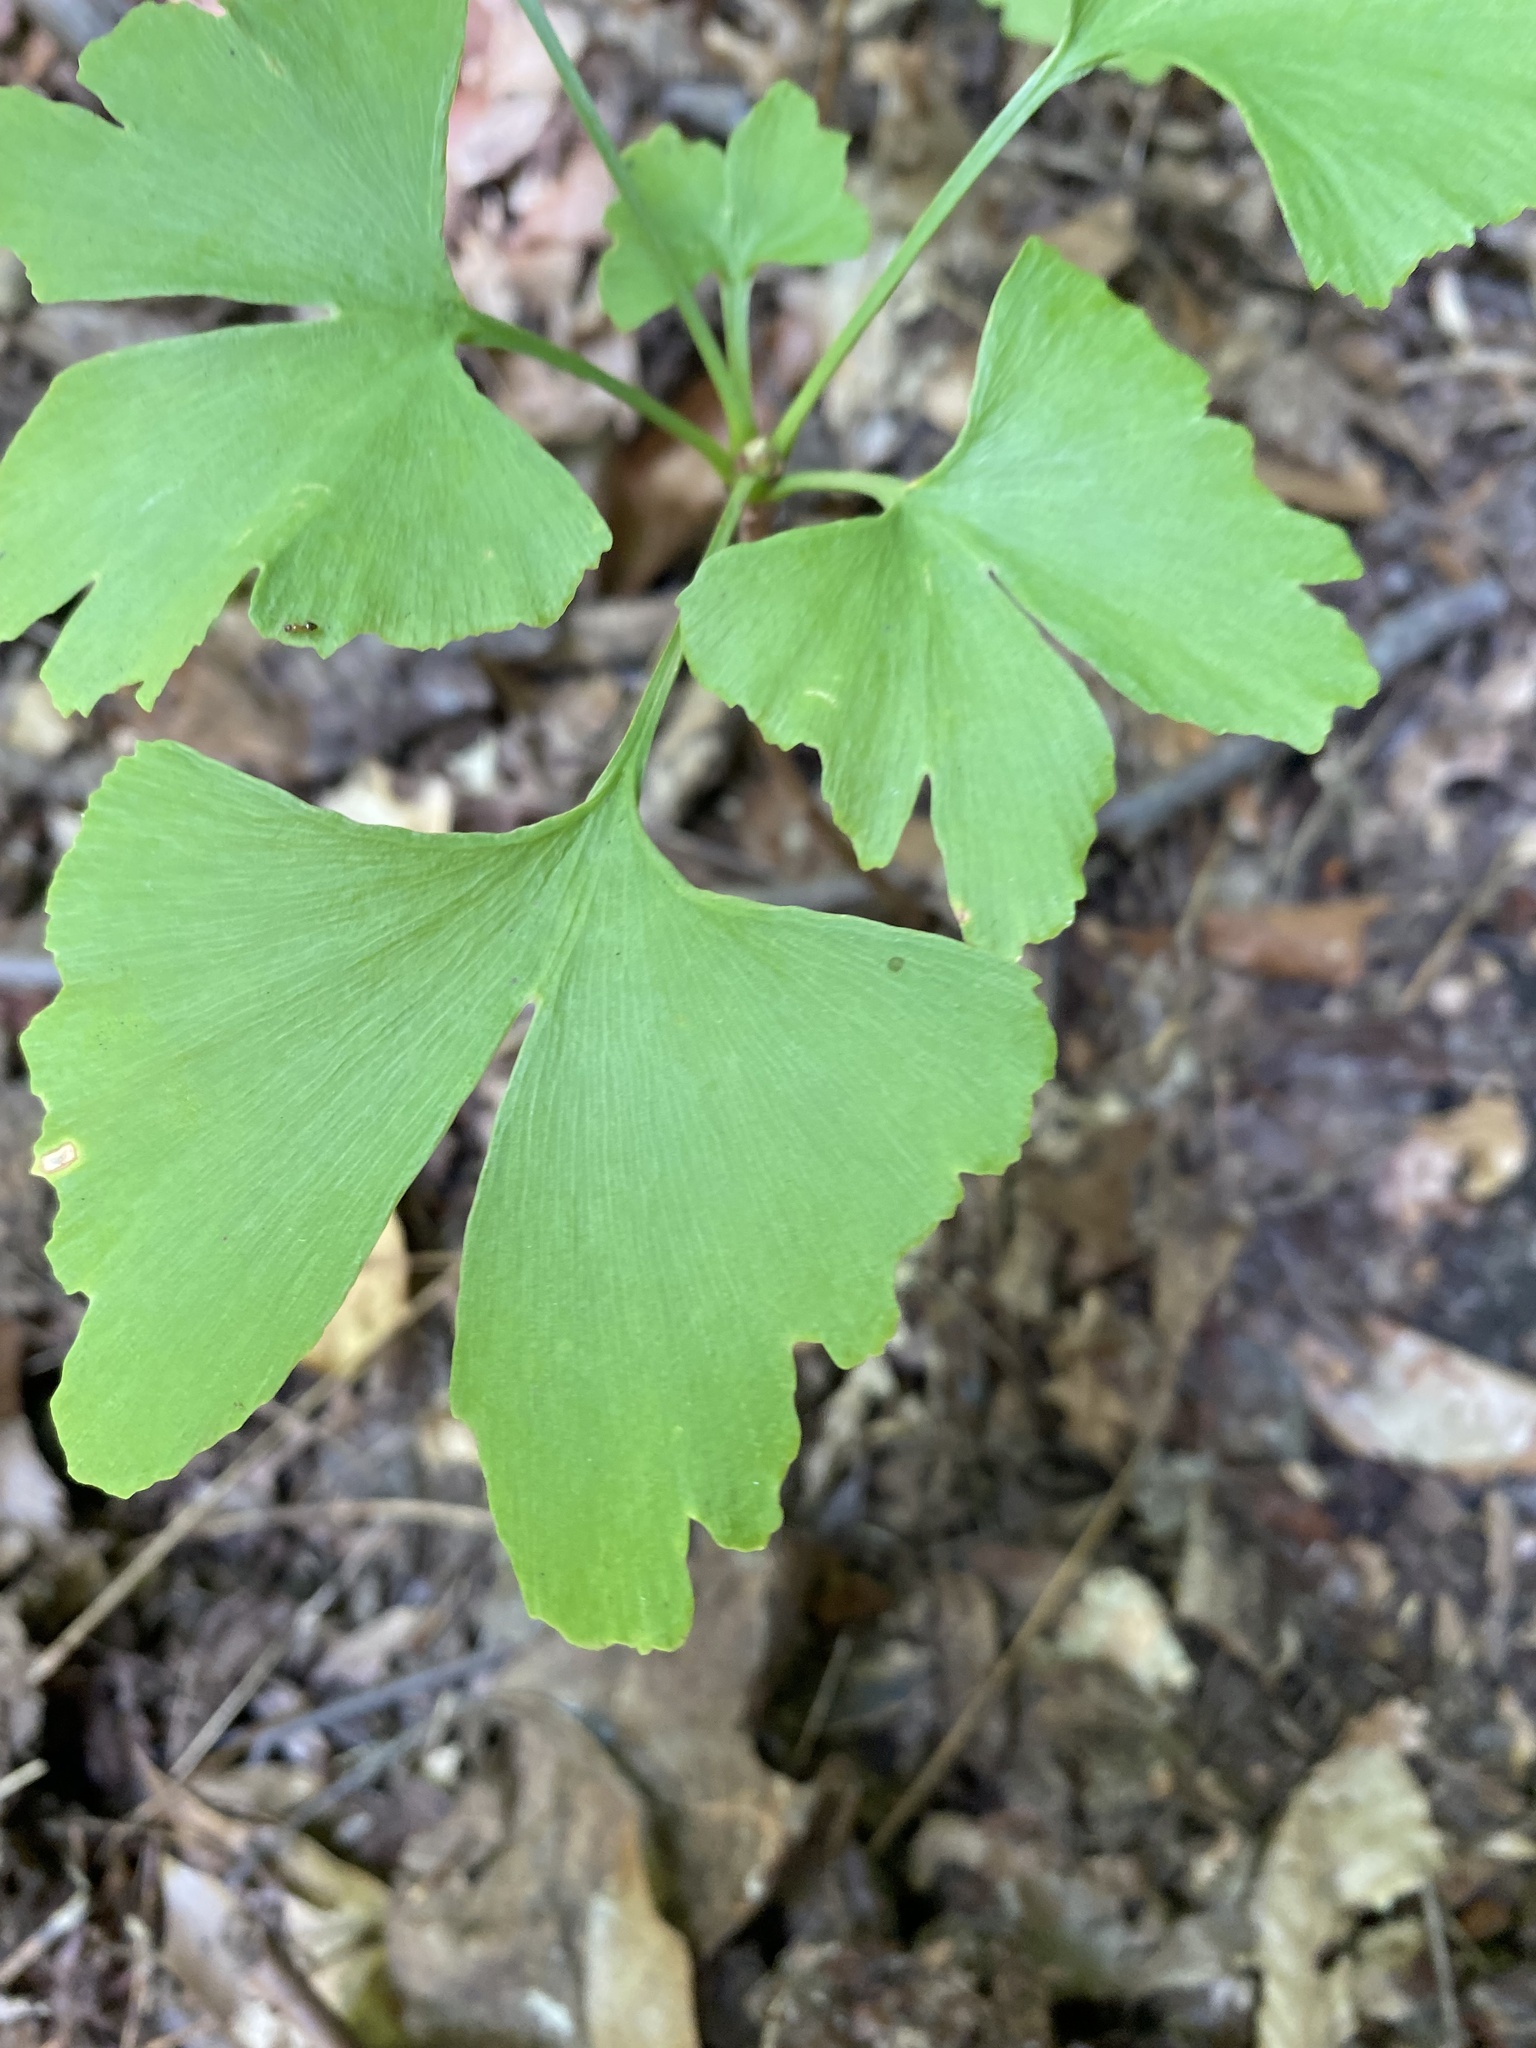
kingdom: Plantae
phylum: Tracheophyta
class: Ginkgoopsida
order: Ginkgoales
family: Ginkgoaceae
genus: Ginkgo
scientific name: Ginkgo biloba
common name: Ginkgo
